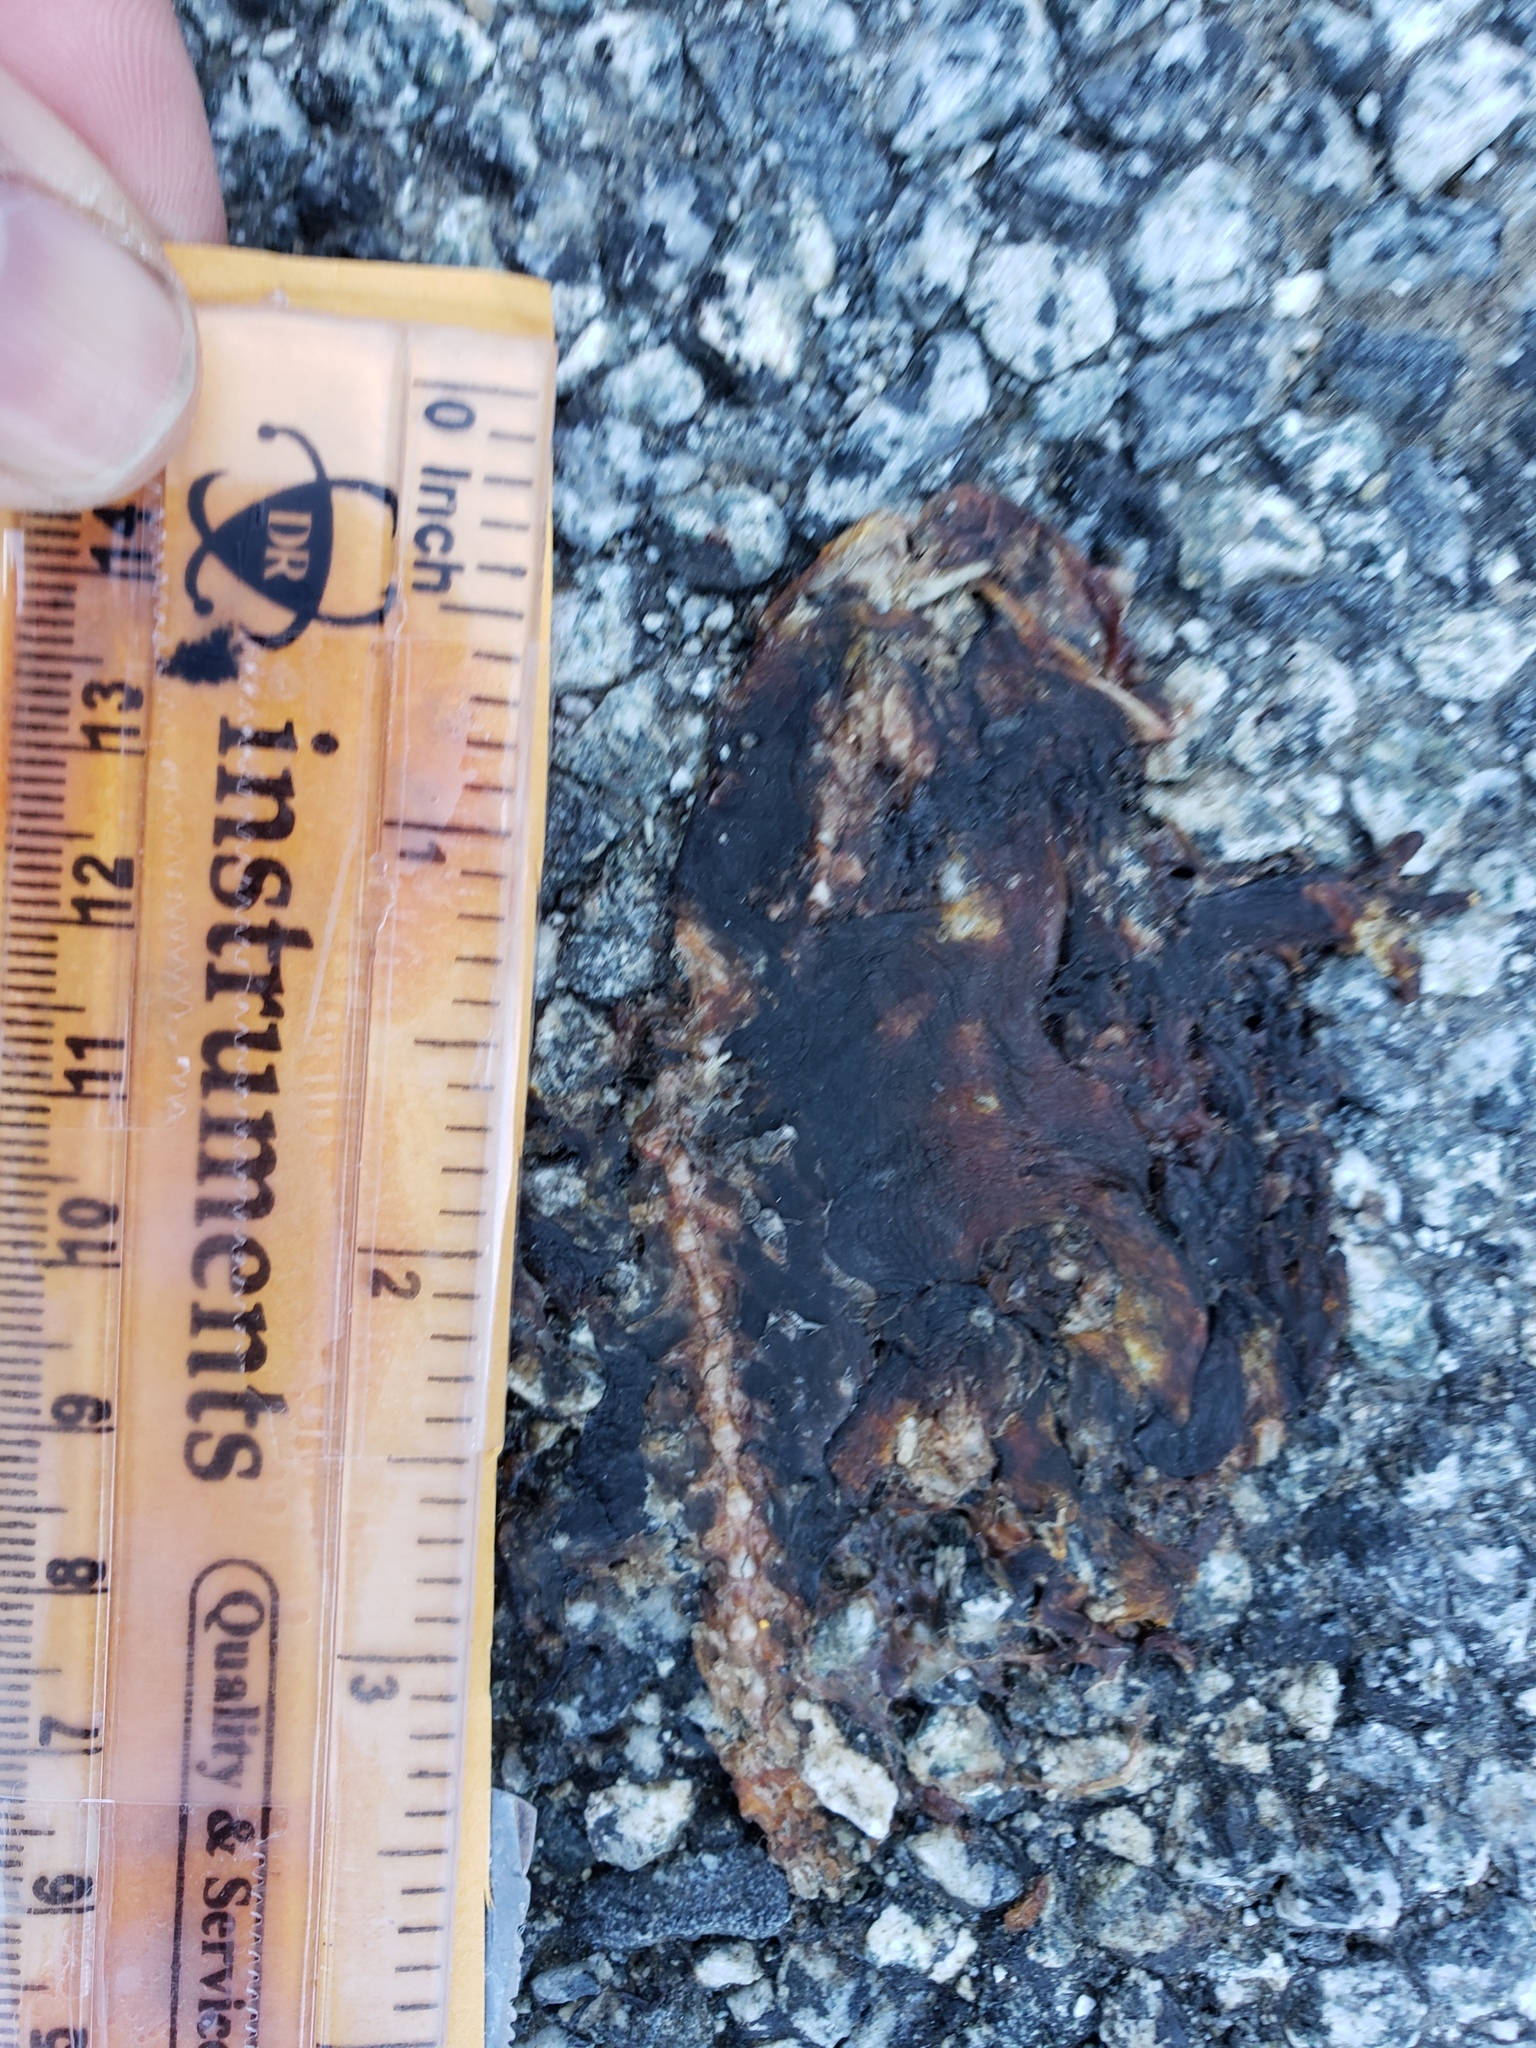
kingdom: Animalia
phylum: Chordata
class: Amphibia
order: Caudata
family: Salamandridae
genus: Taricha
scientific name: Taricha
